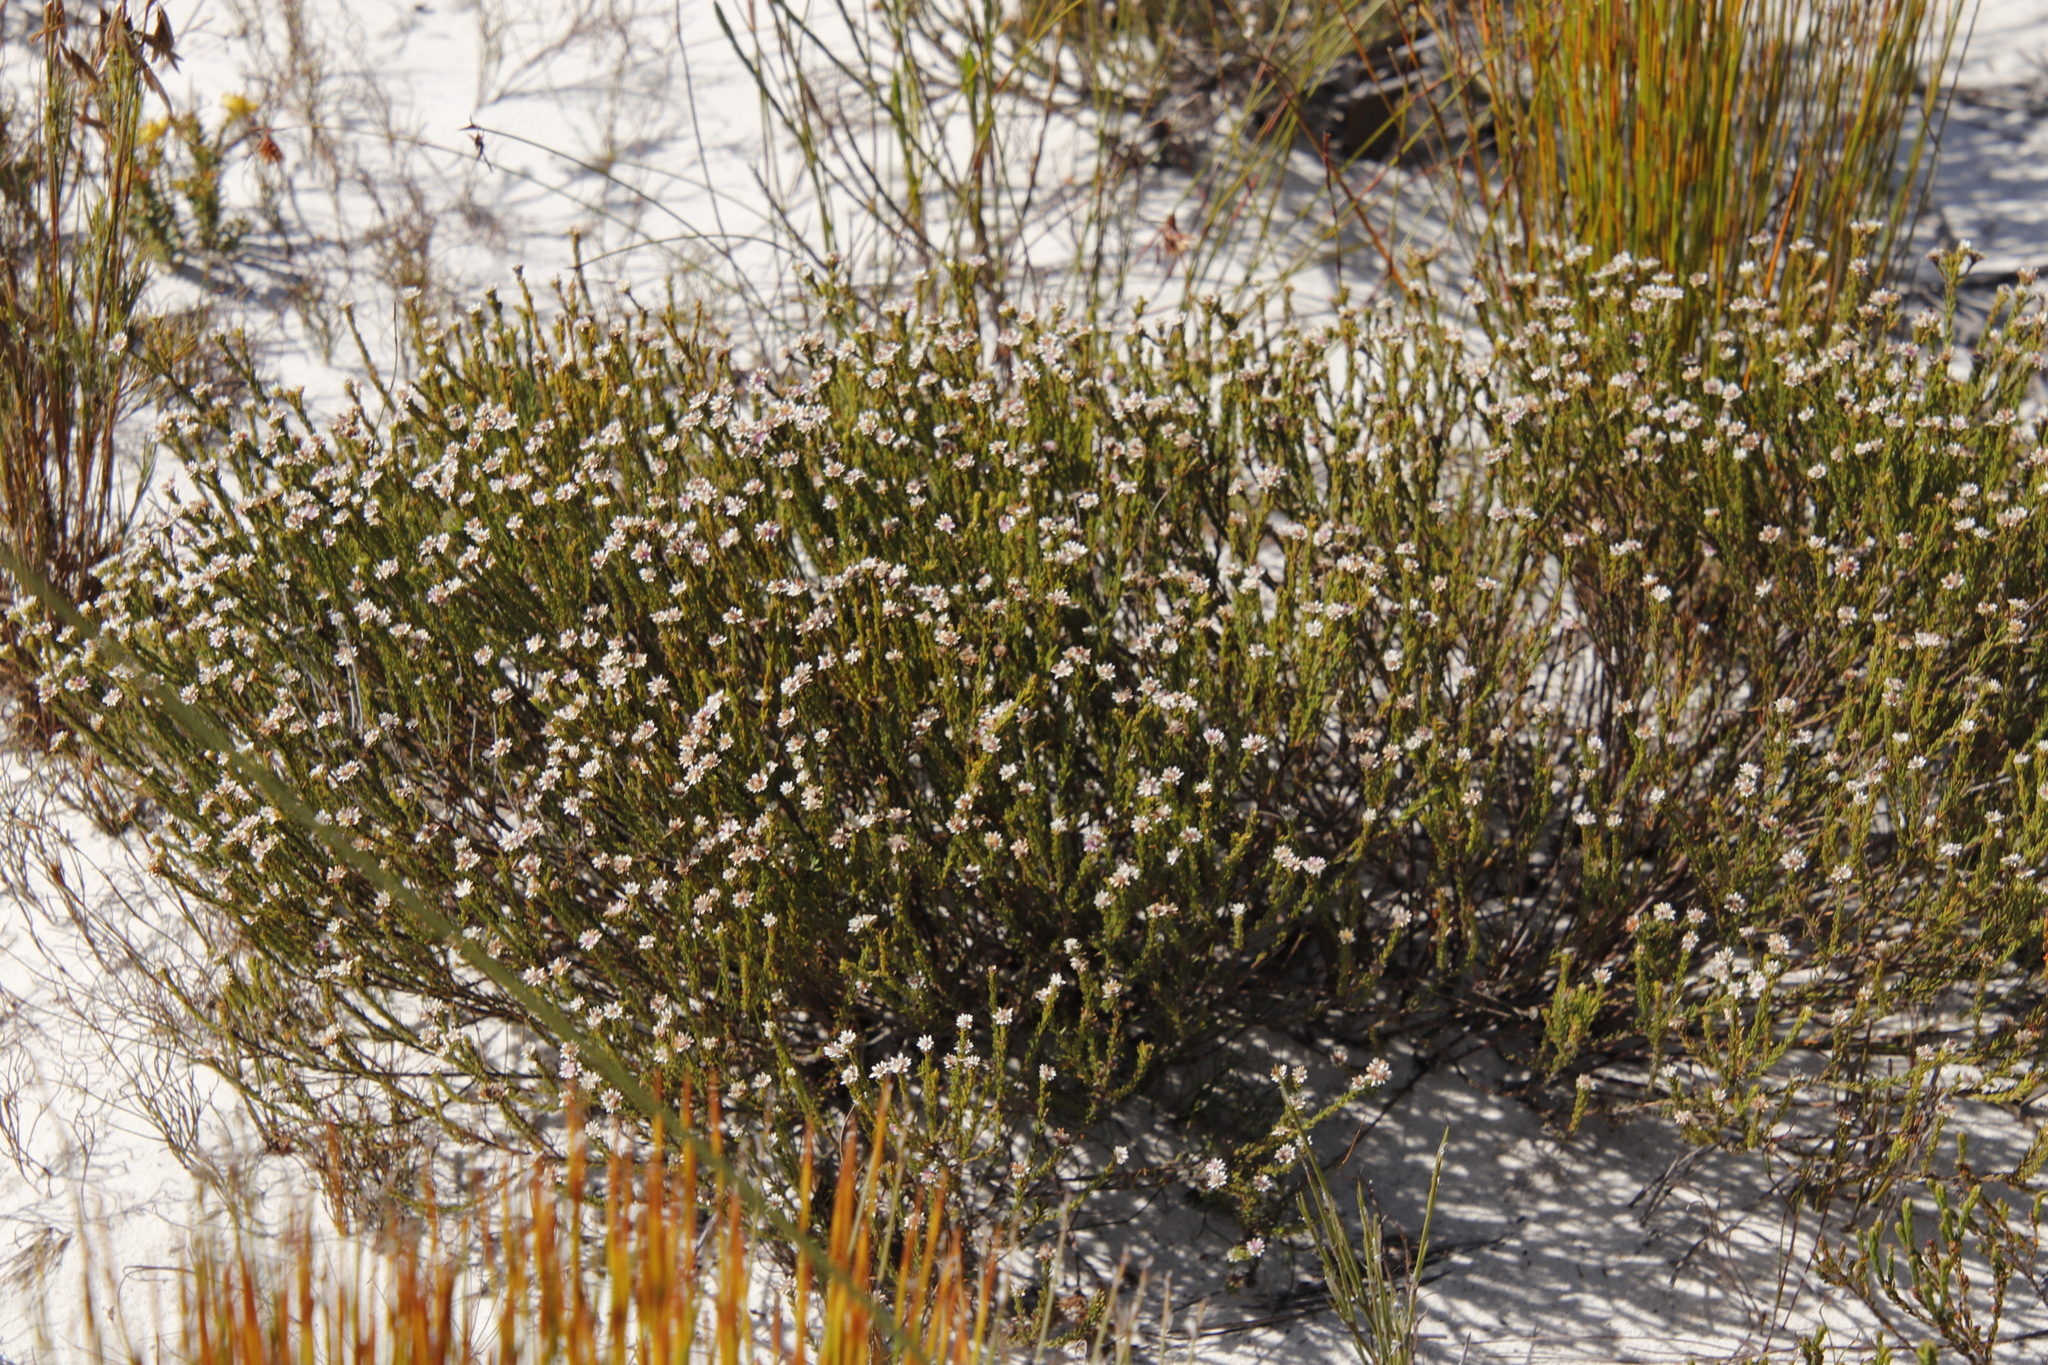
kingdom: Plantae
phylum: Tracheophyta
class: Magnoliopsida
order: Bruniales
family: Bruniaceae
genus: Staavia
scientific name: Staavia radiata
